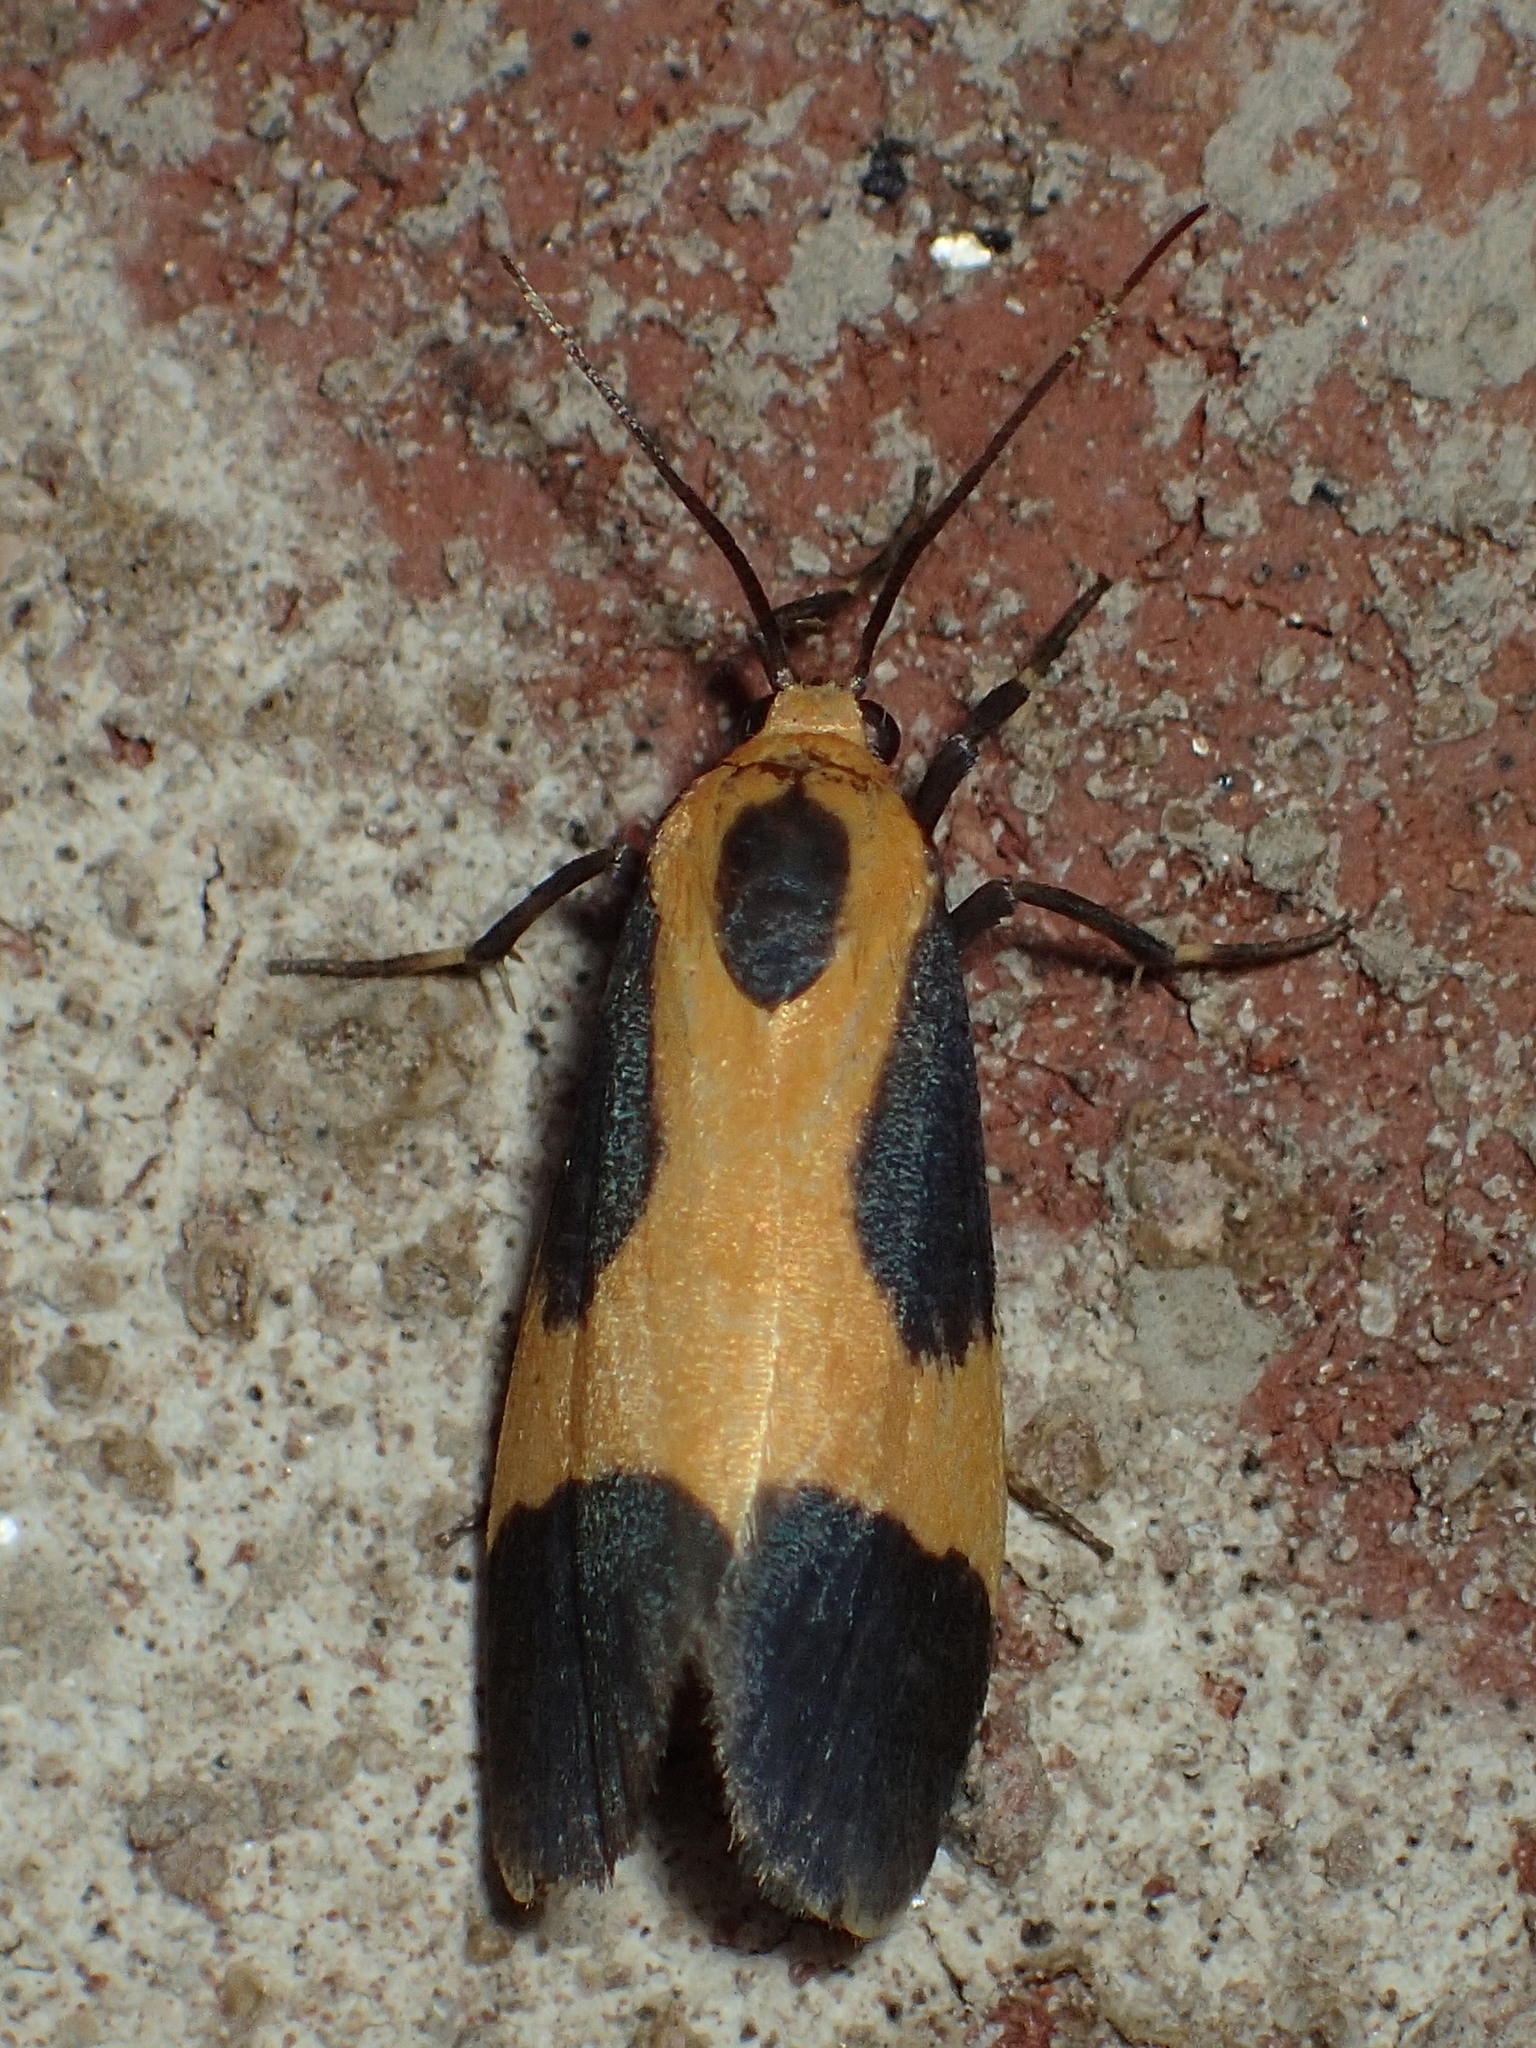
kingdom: Animalia
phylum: Arthropoda
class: Insecta
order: Lepidoptera
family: Erebidae
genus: Cisthene
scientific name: Cisthene kentuckiensis
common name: Kentucky lichen moth
